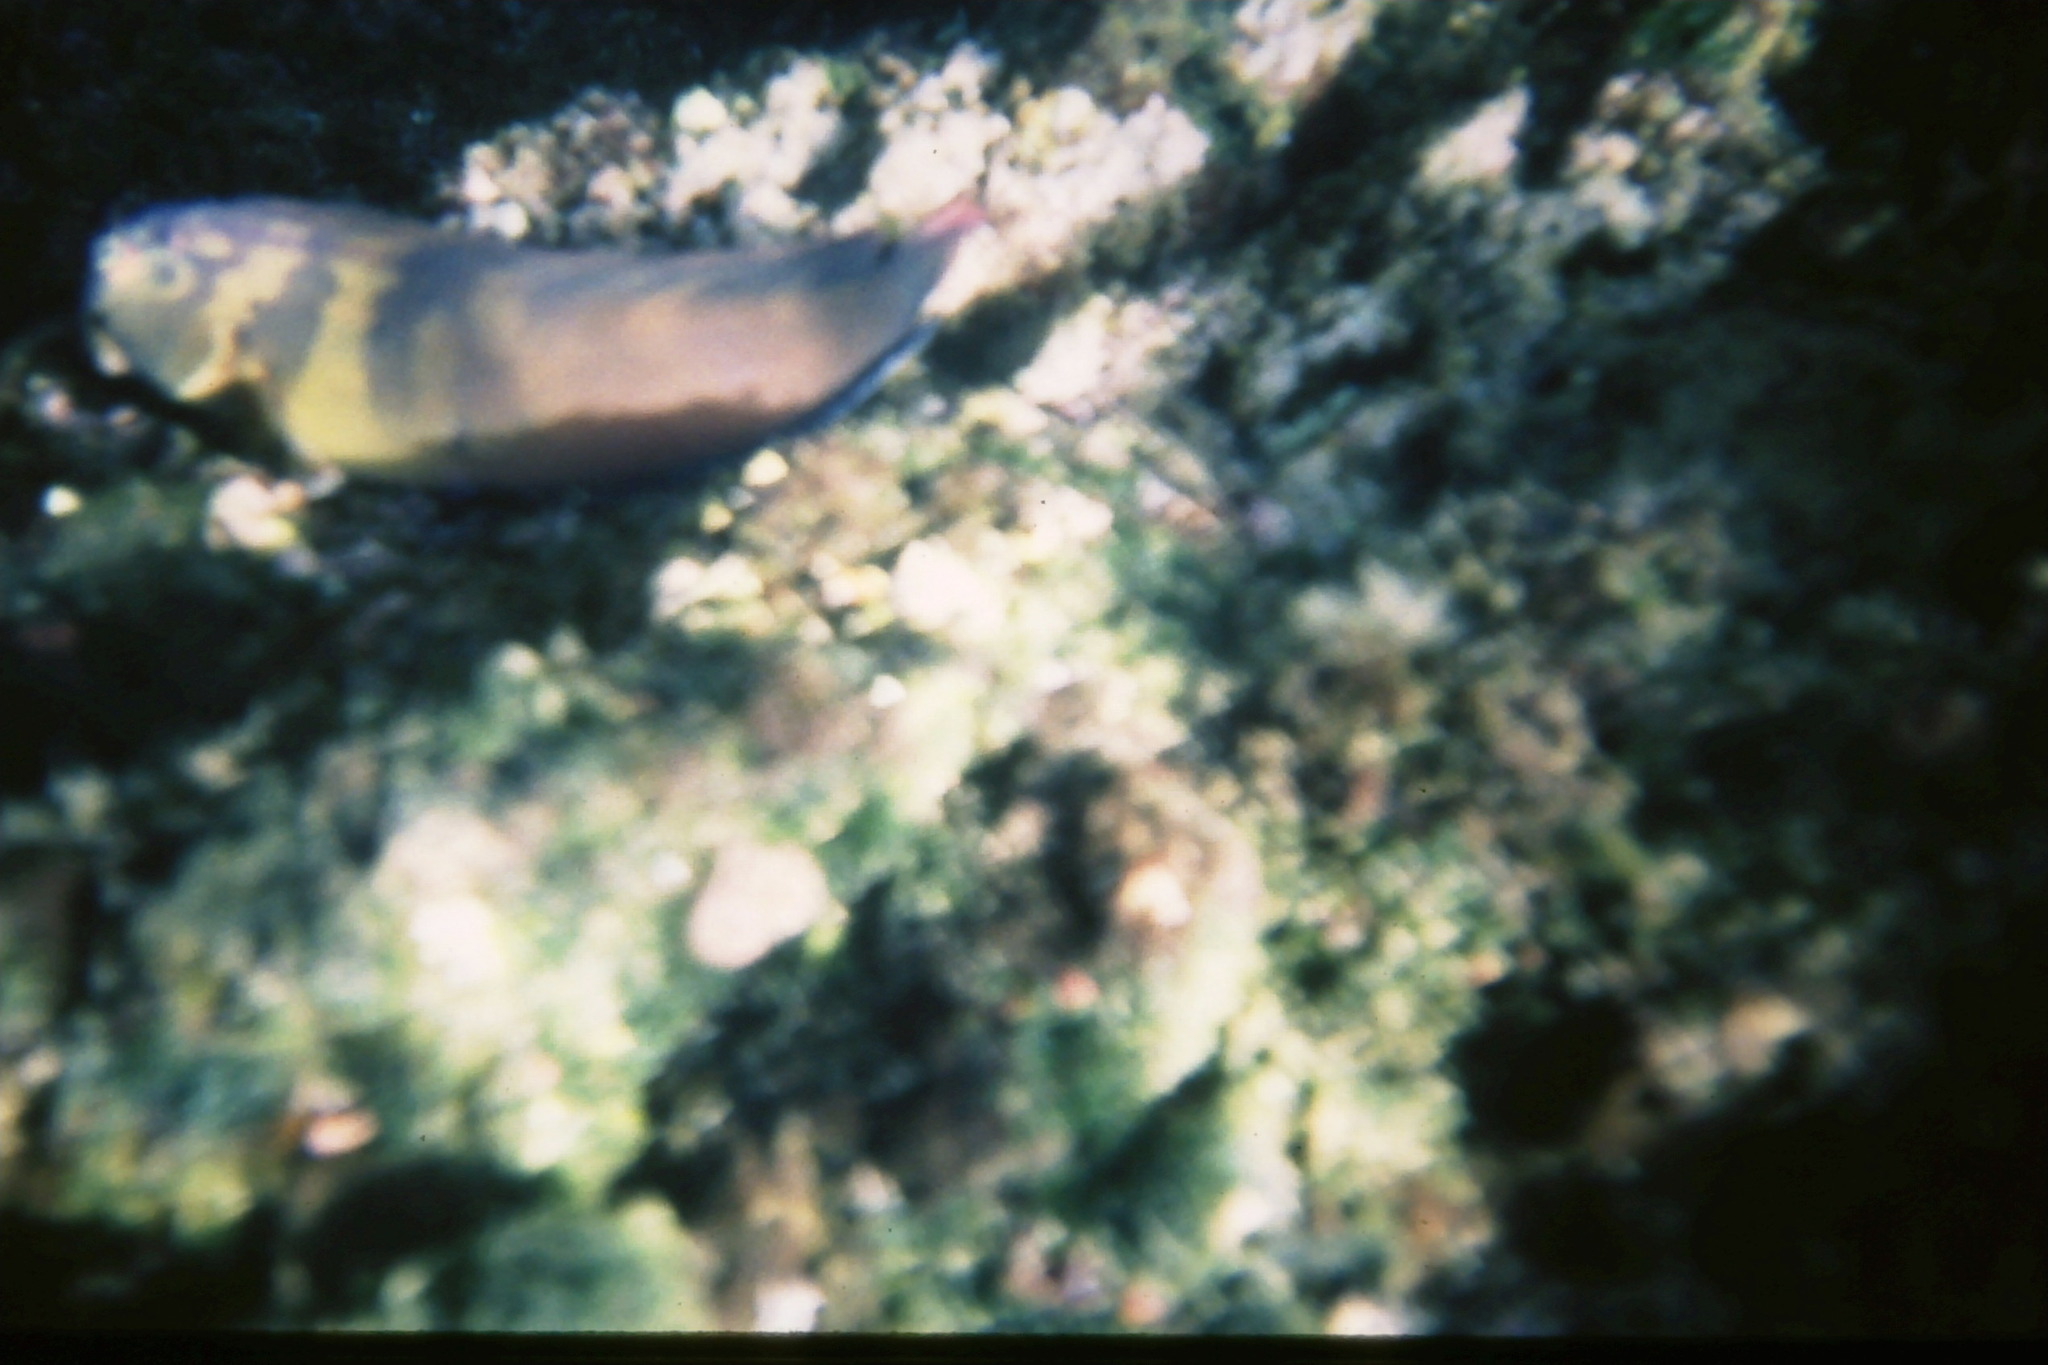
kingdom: Animalia
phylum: Chordata
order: Perciformes
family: Blenniidae
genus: Ophioblennius
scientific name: Ophioblennius steindachneri
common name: Panamic fanged blenny
